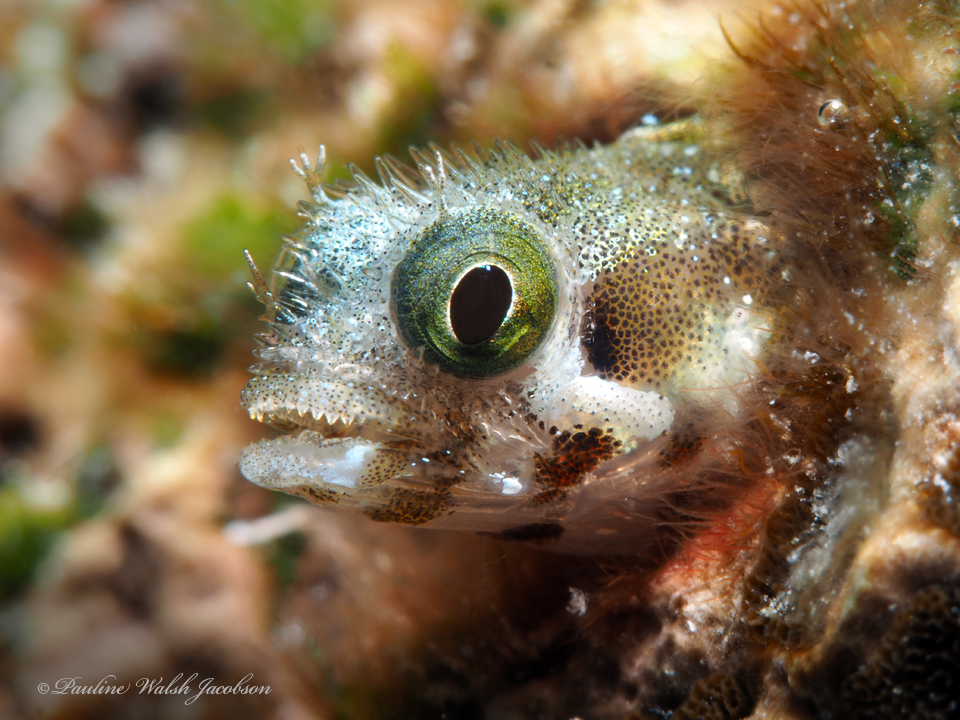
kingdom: Animalia
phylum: Chordata
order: Perciformes
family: Chaenopsidae
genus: Acanthemblemaria
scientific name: Acanthemblemaria spinosa
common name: Spinyhead blenny
